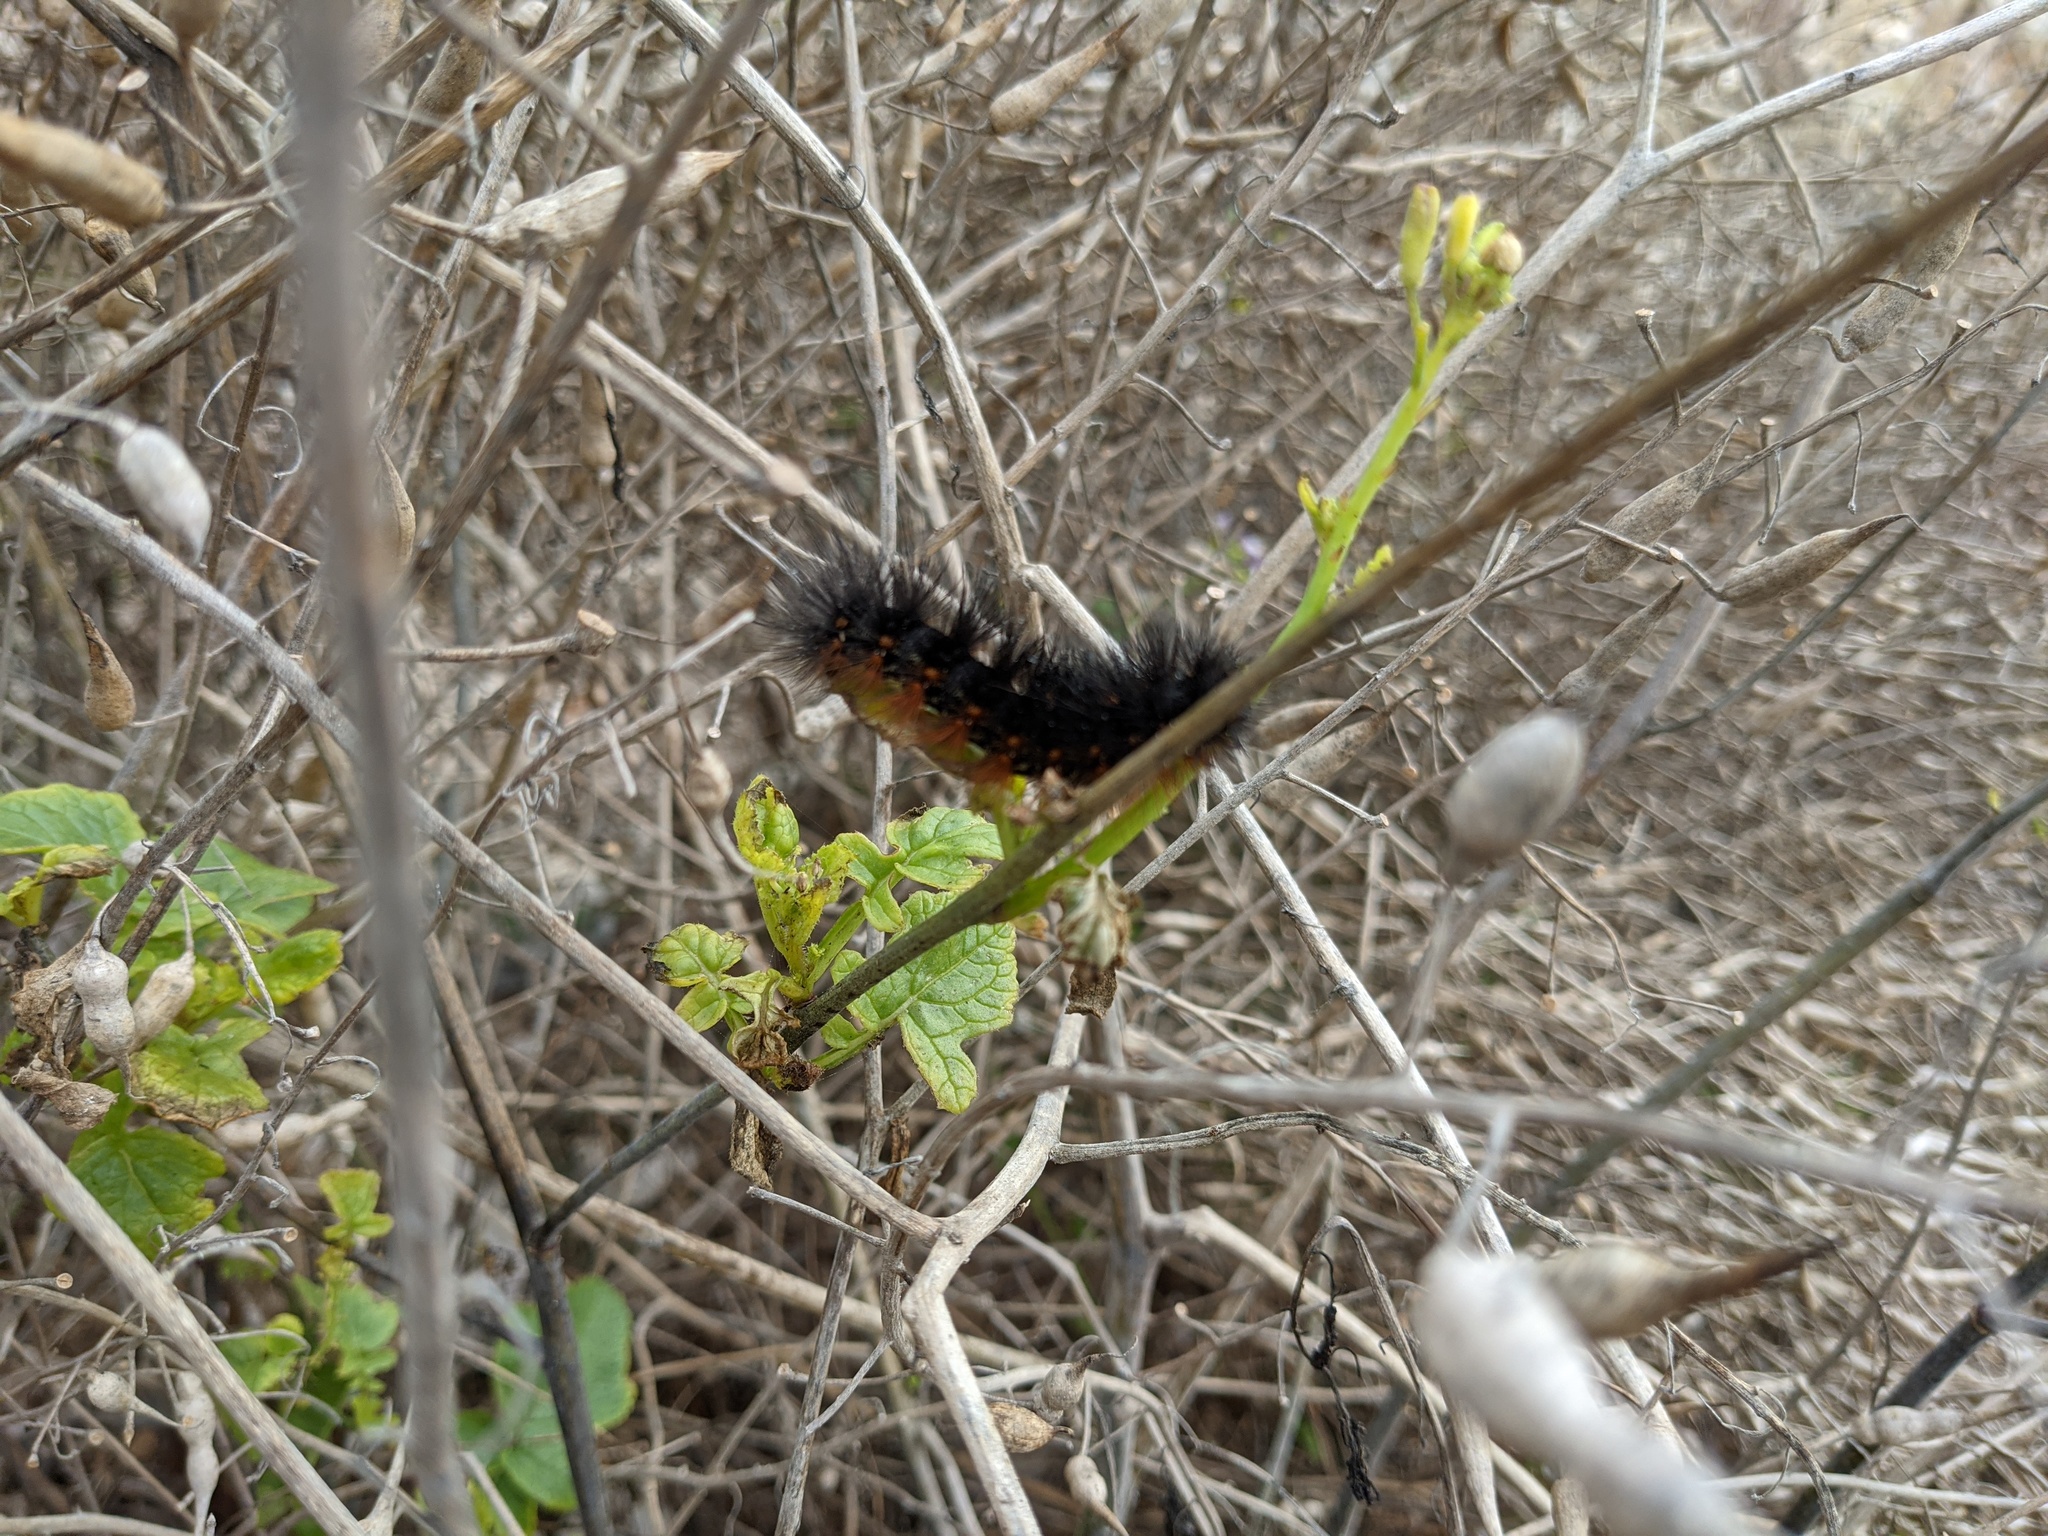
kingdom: Animalia
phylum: Arthropoda
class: Insecta
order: Lepidoptera
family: Erebidae
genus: Estigmene
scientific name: Estigmene acrea
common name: Salt marsh moth
